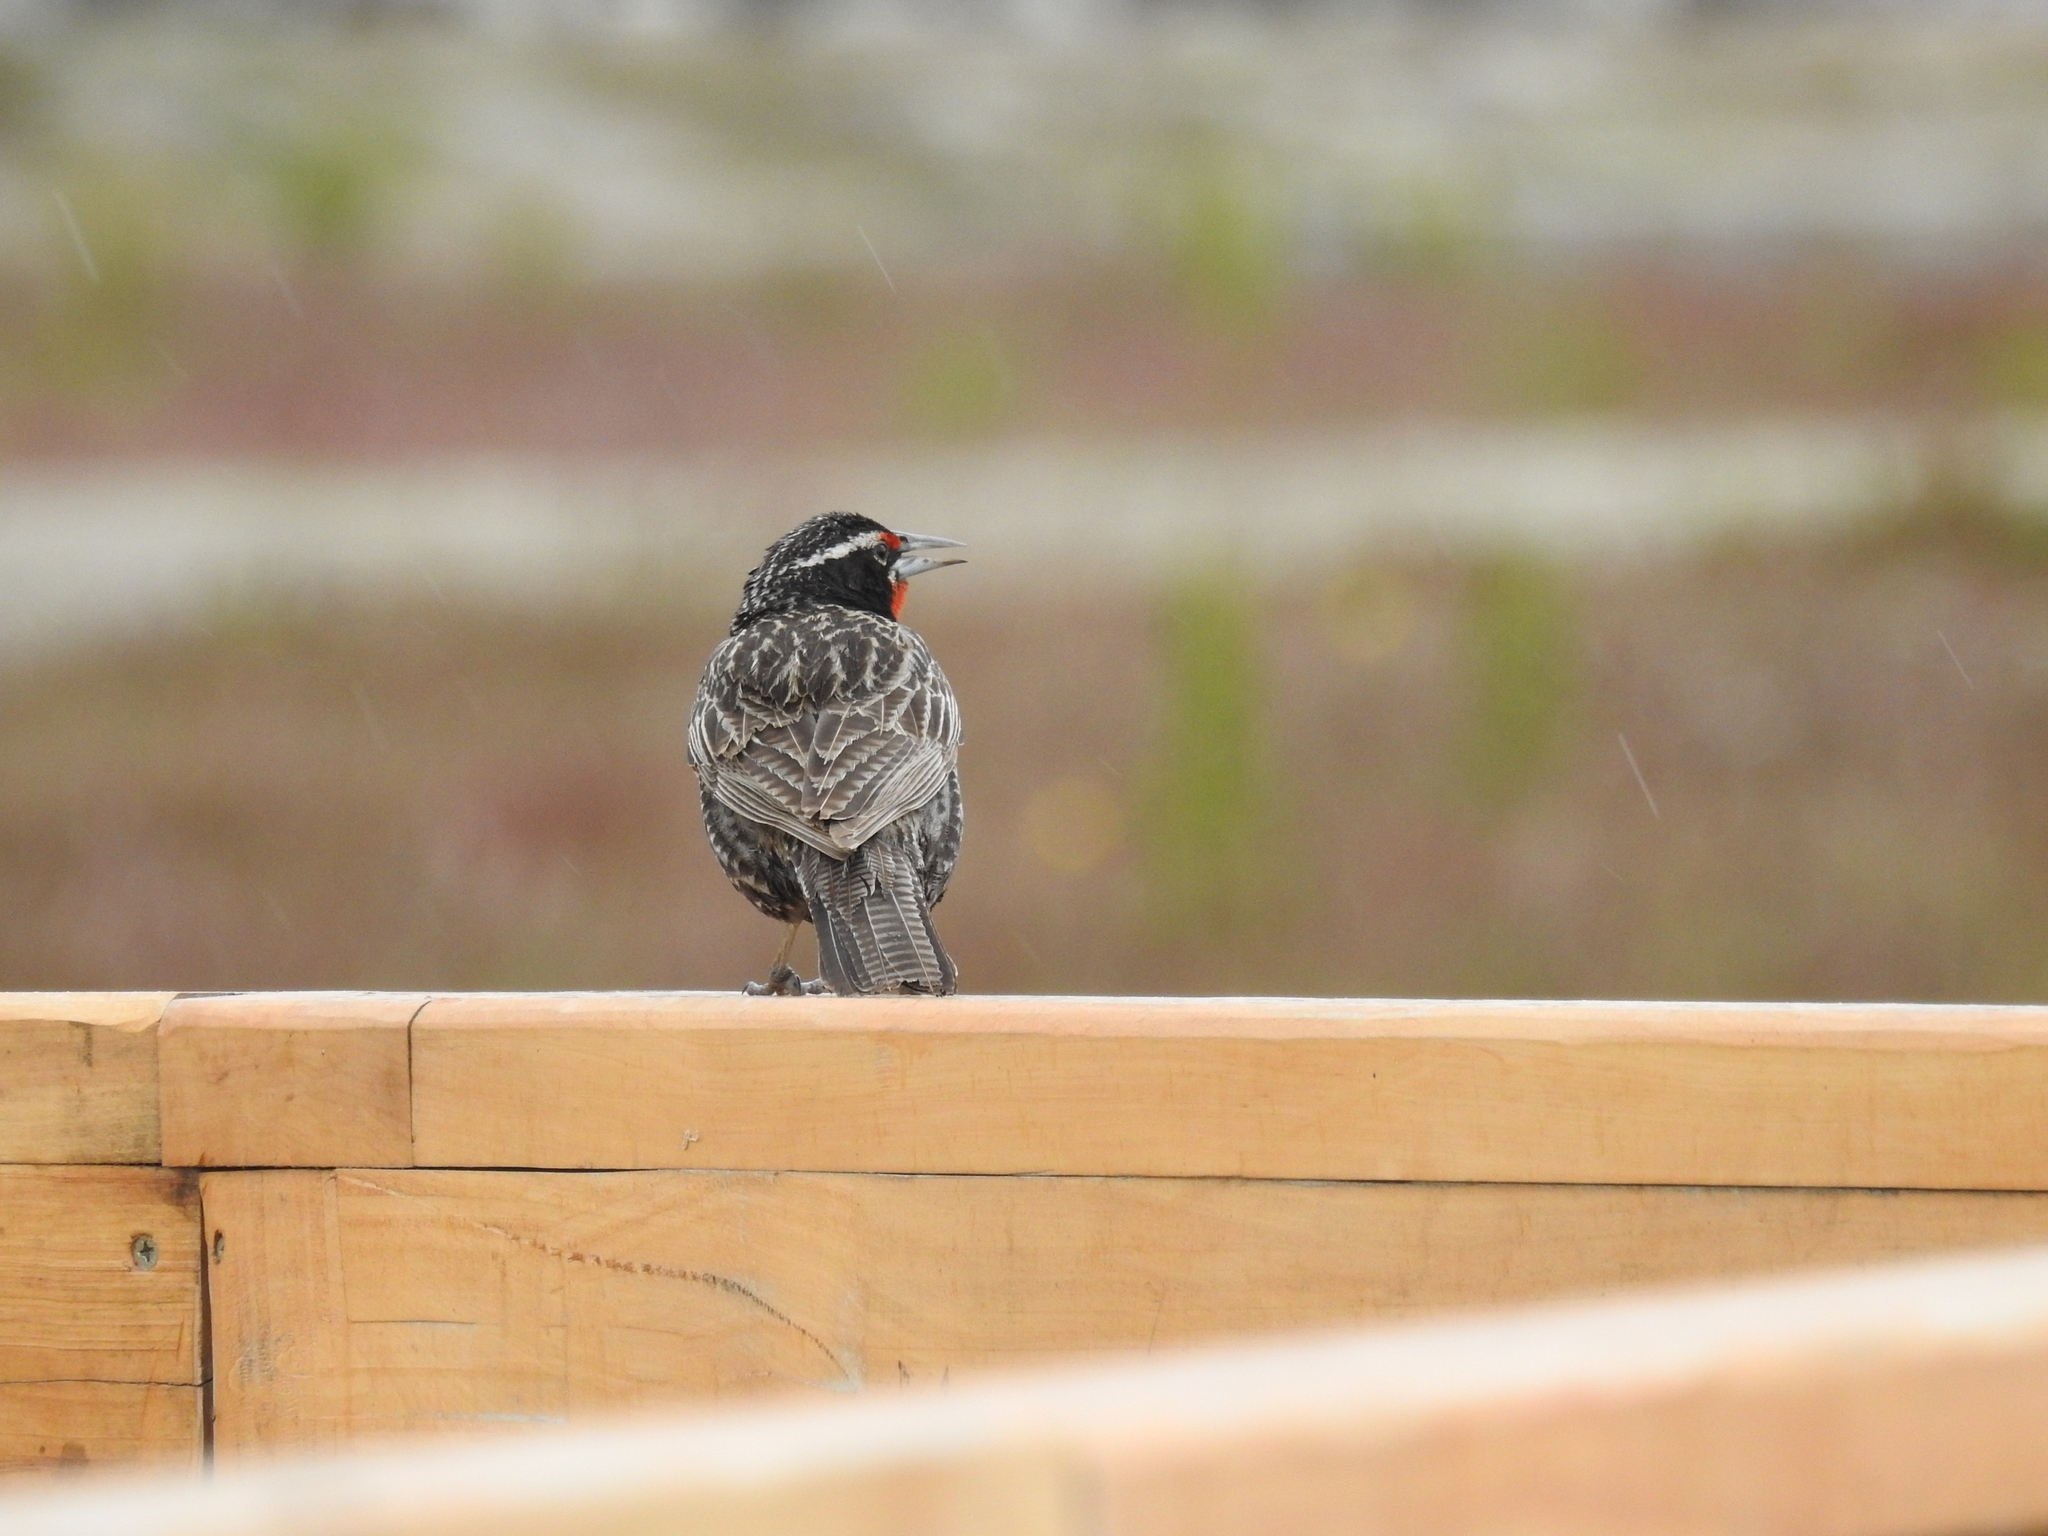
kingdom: Animalia
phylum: Chordata
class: Aves
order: Passeriformes
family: Icteridae
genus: Sturnella
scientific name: Sturnella loyca
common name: Long-tailed meadowlark
